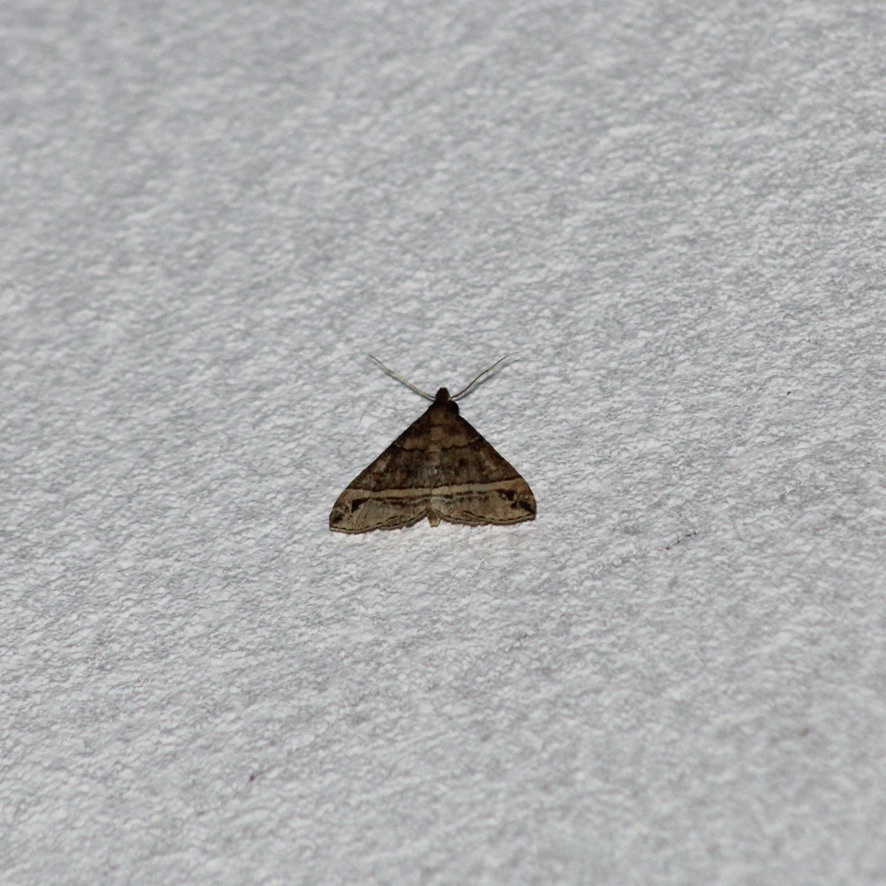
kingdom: Animalia
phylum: Arthropoda
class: Insecta
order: Lepidoptera
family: Erebidae
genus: Mastixis
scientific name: Mastixis aspisalis
